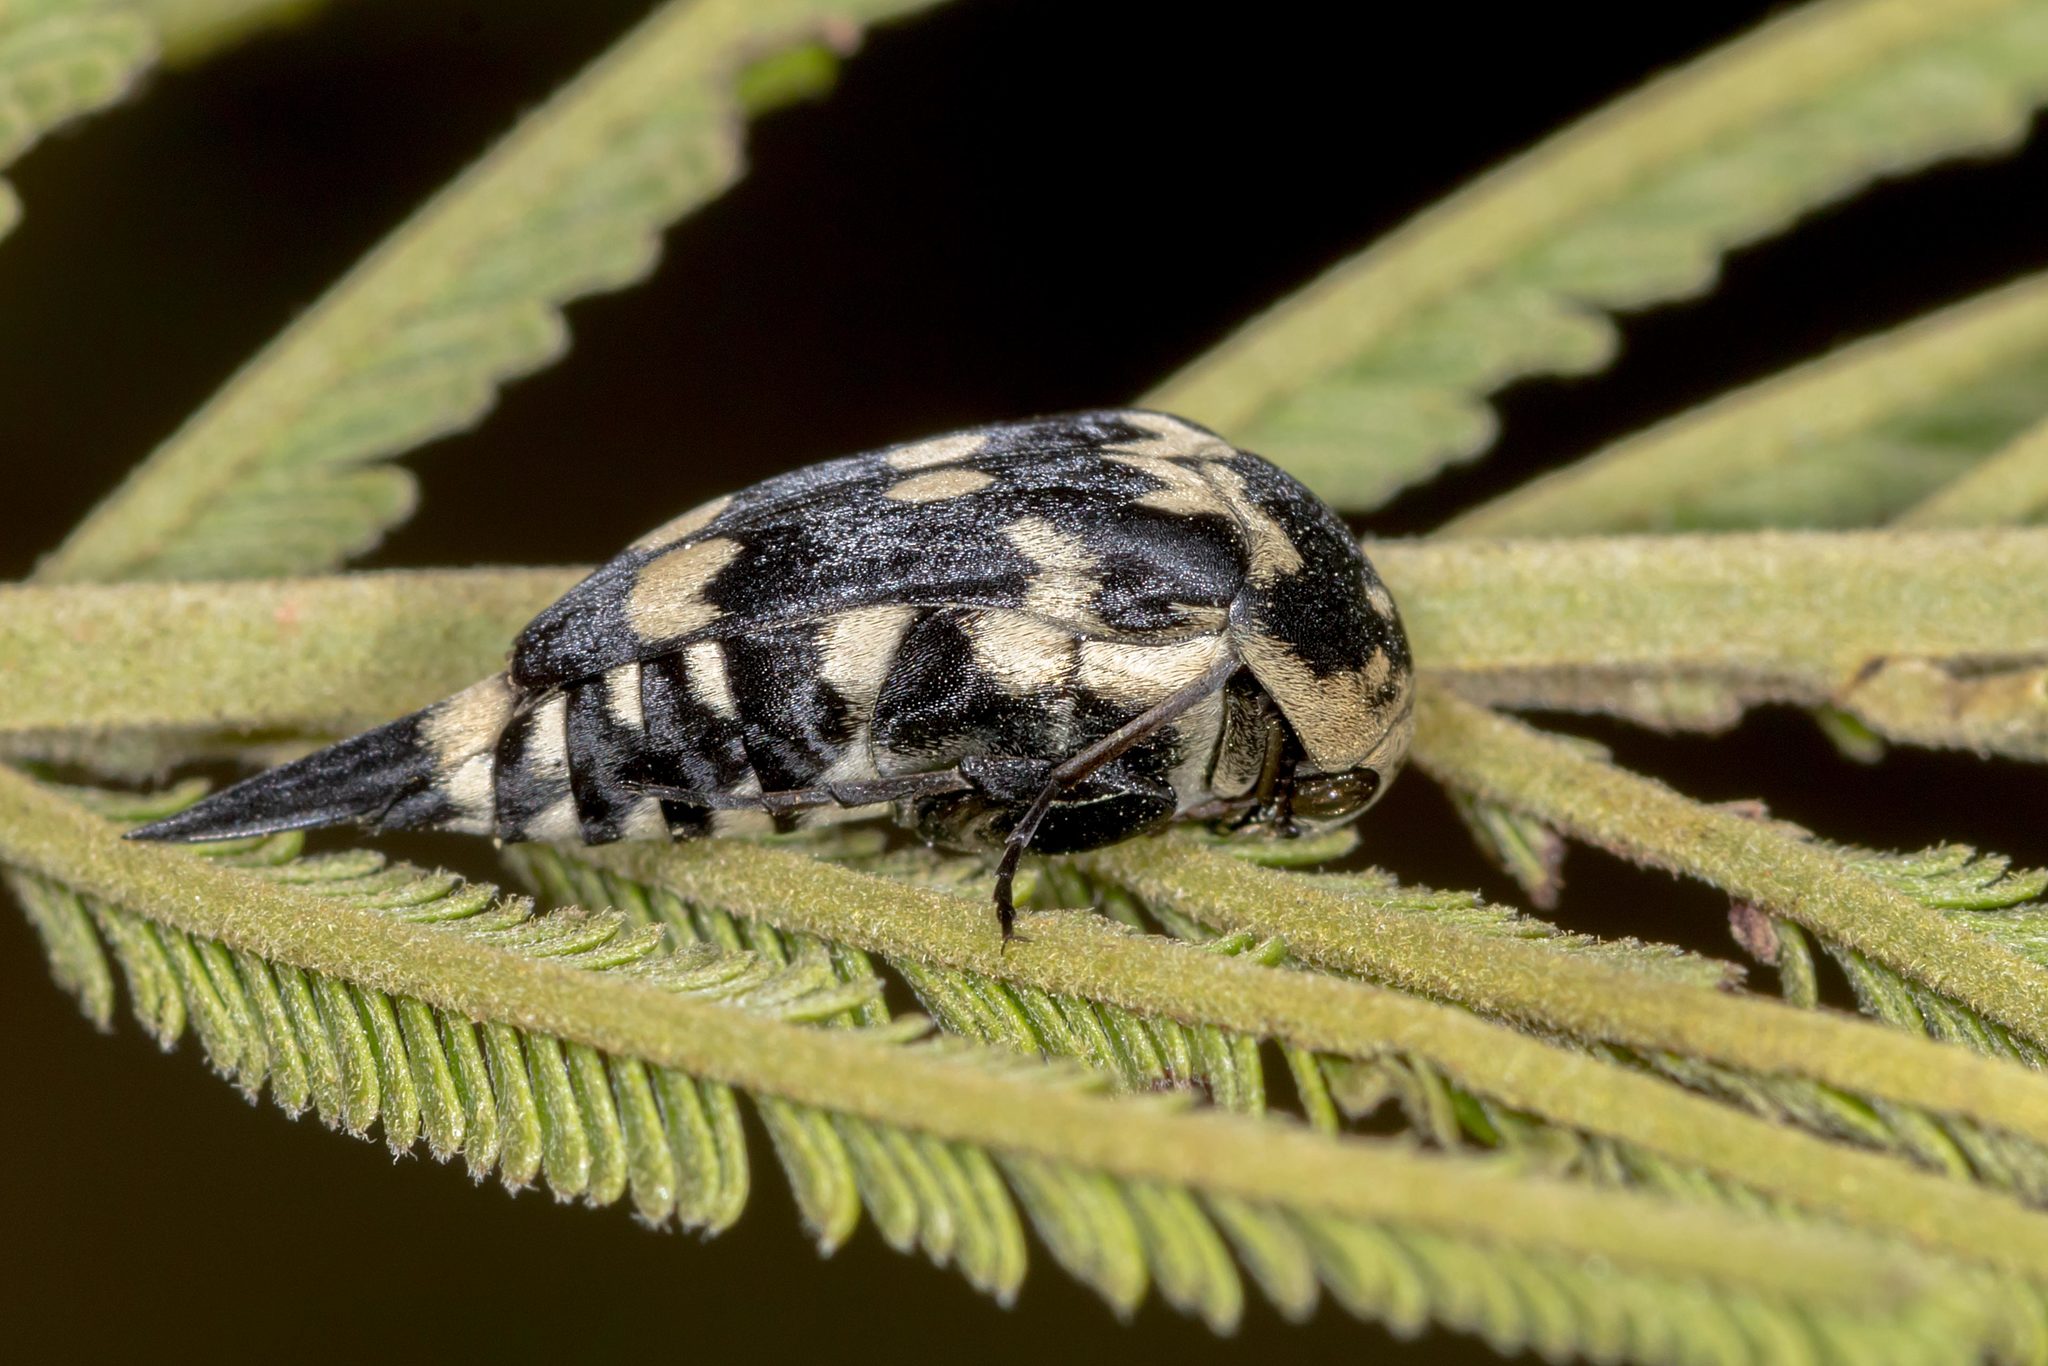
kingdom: Animalia
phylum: Arthropoda
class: Insecta
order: Coleoptera
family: Mordellidae
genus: Hoshihananomia
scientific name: Hoshihananomia
